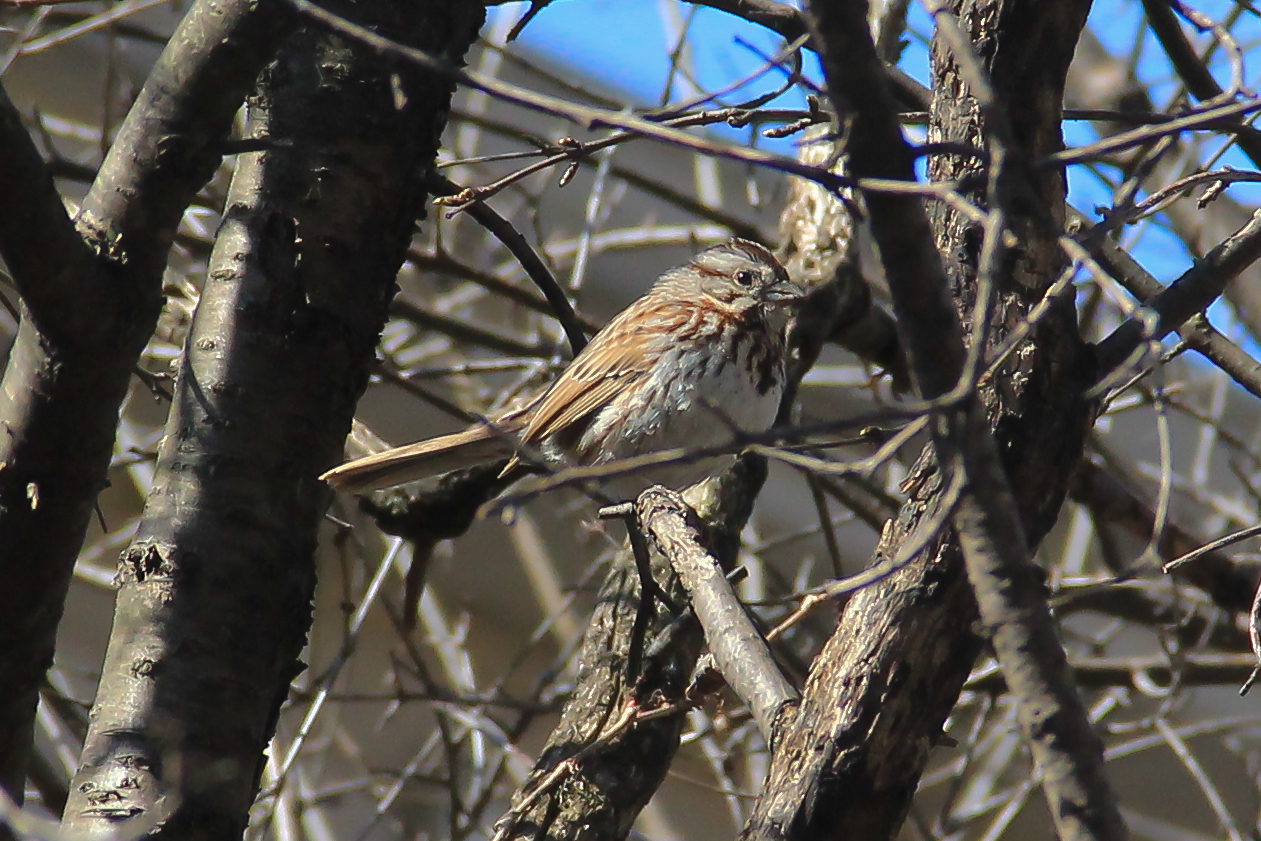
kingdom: Animalia
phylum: Chordata
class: Aves
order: Passeriformes
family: Passerellidae
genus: Melospiza
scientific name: Melospiza melodia
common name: Song sparrow
